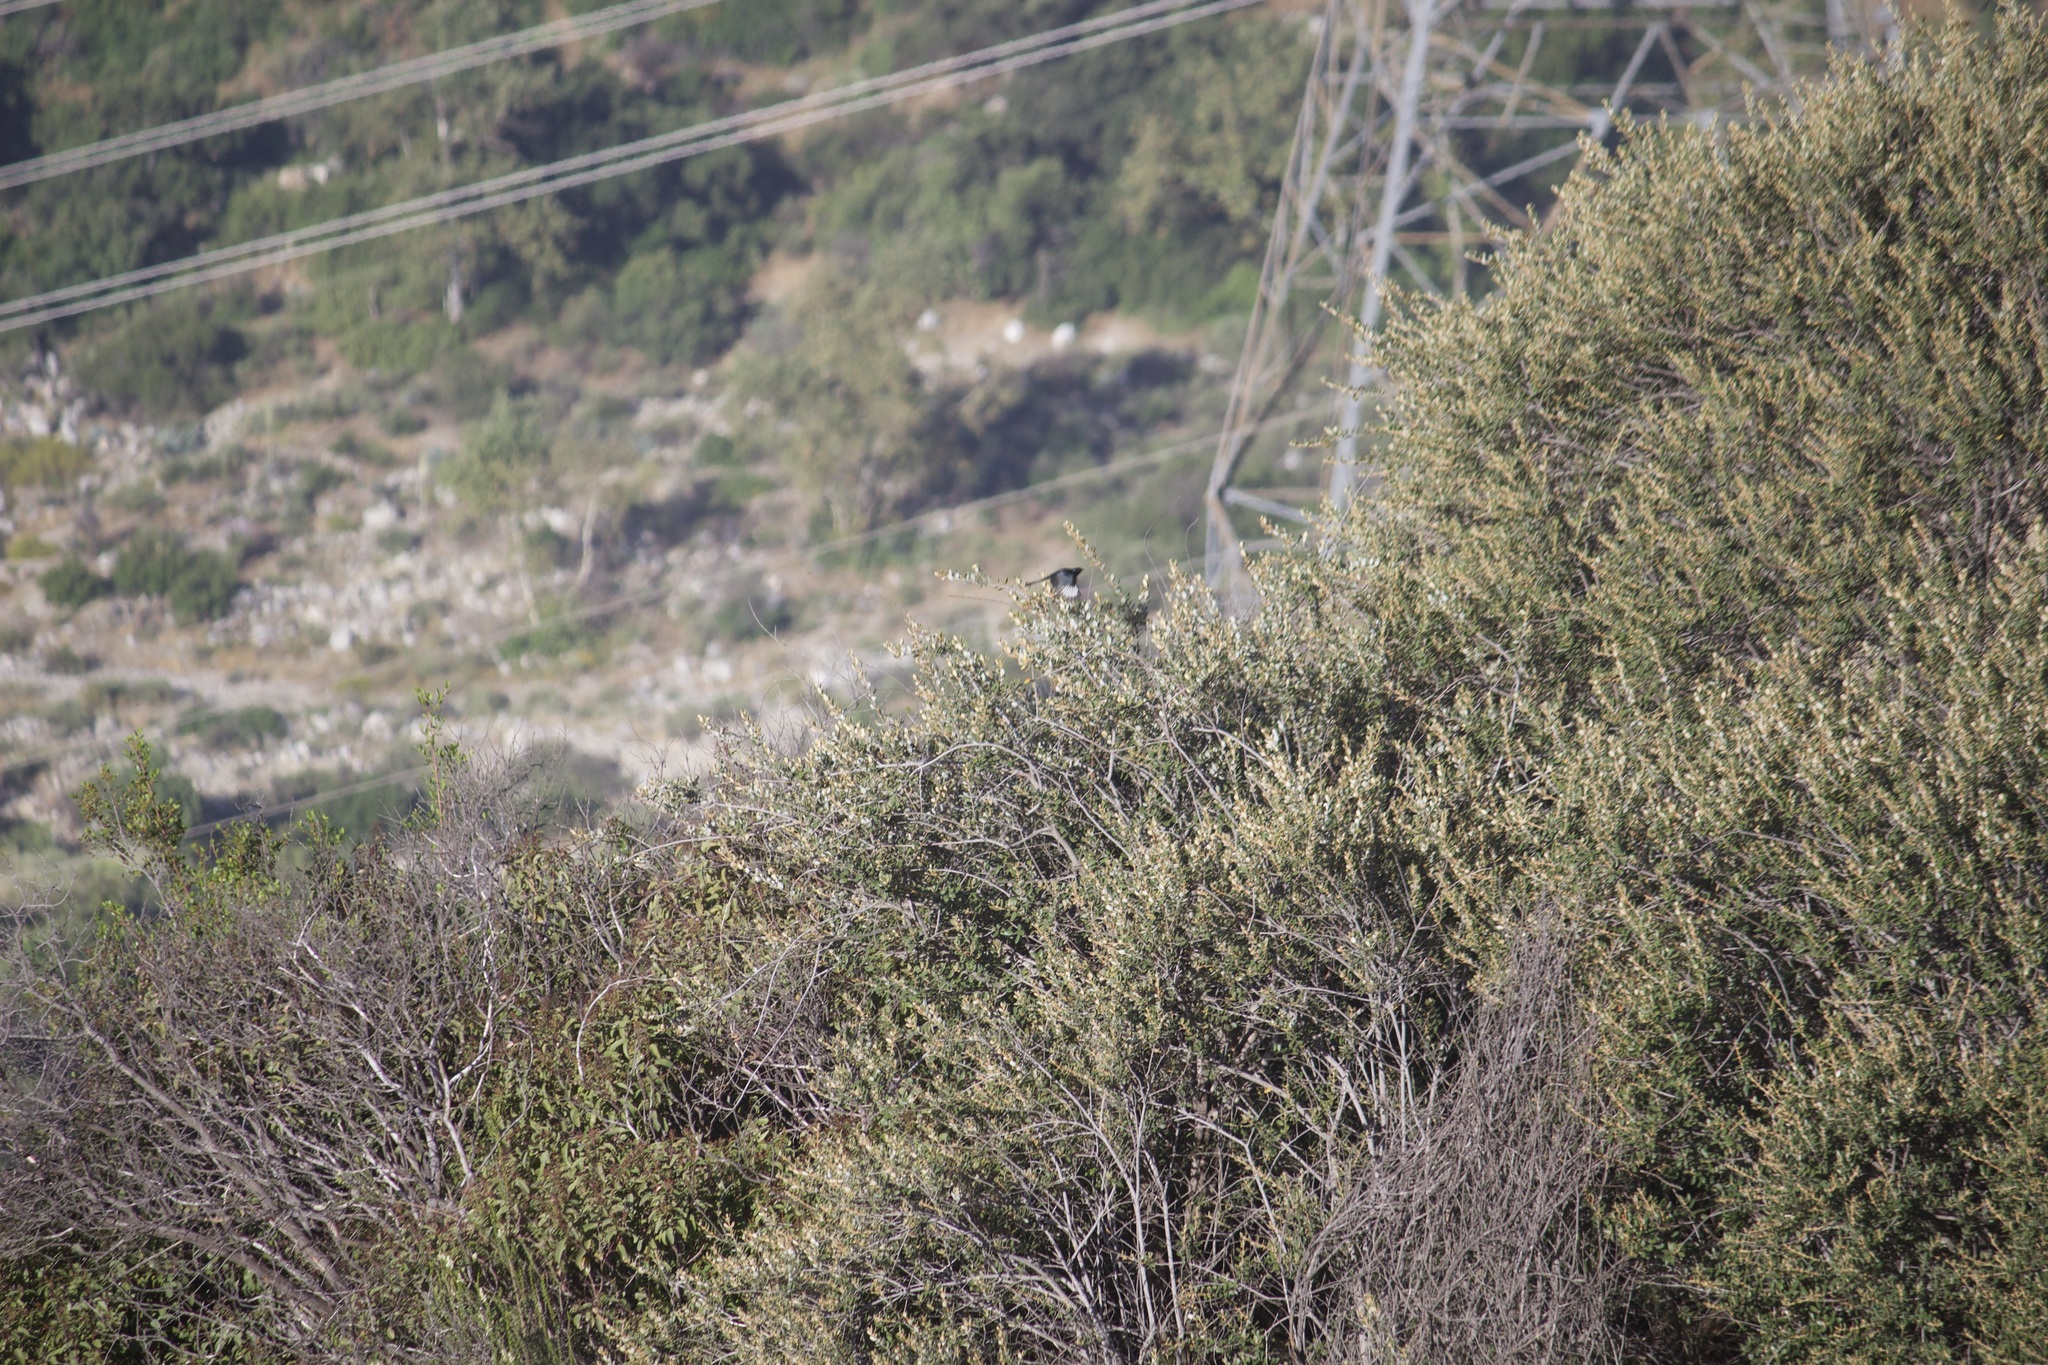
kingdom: Animalia
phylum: Chordata
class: Aves
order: Passeriformes
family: Ptilogonatidae
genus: Phainopepla
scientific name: Phainopepla nitens
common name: Phainopepla
